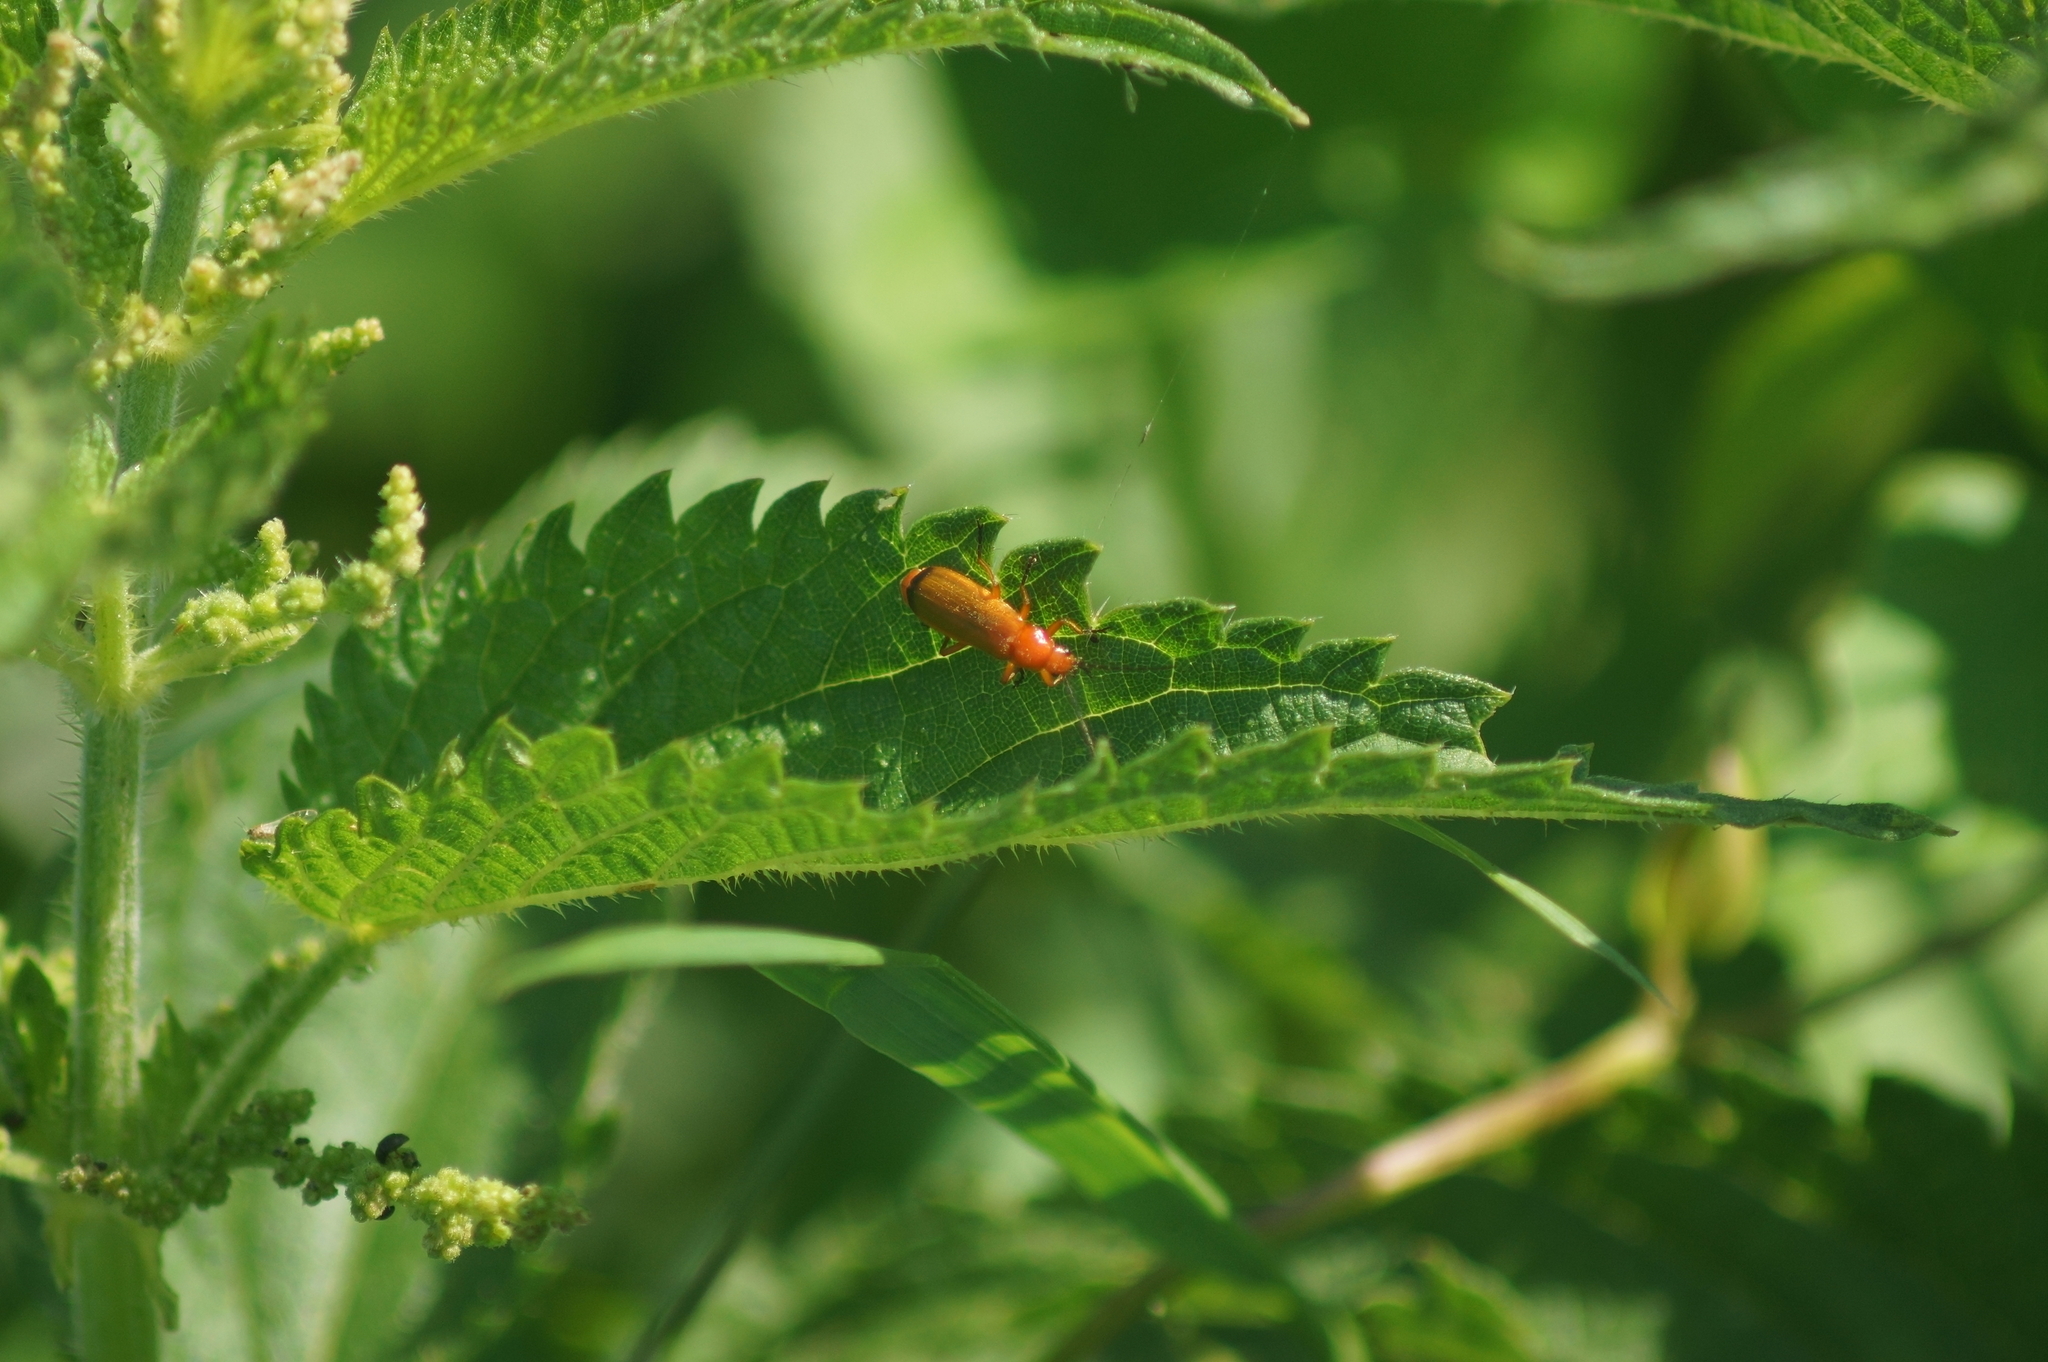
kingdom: Animalia
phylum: Arthropoda
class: Insecta
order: Coleoptera
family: Cantharidae
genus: Rhagonycha
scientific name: Rhagonycha fulva
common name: Common red soldier beetle
